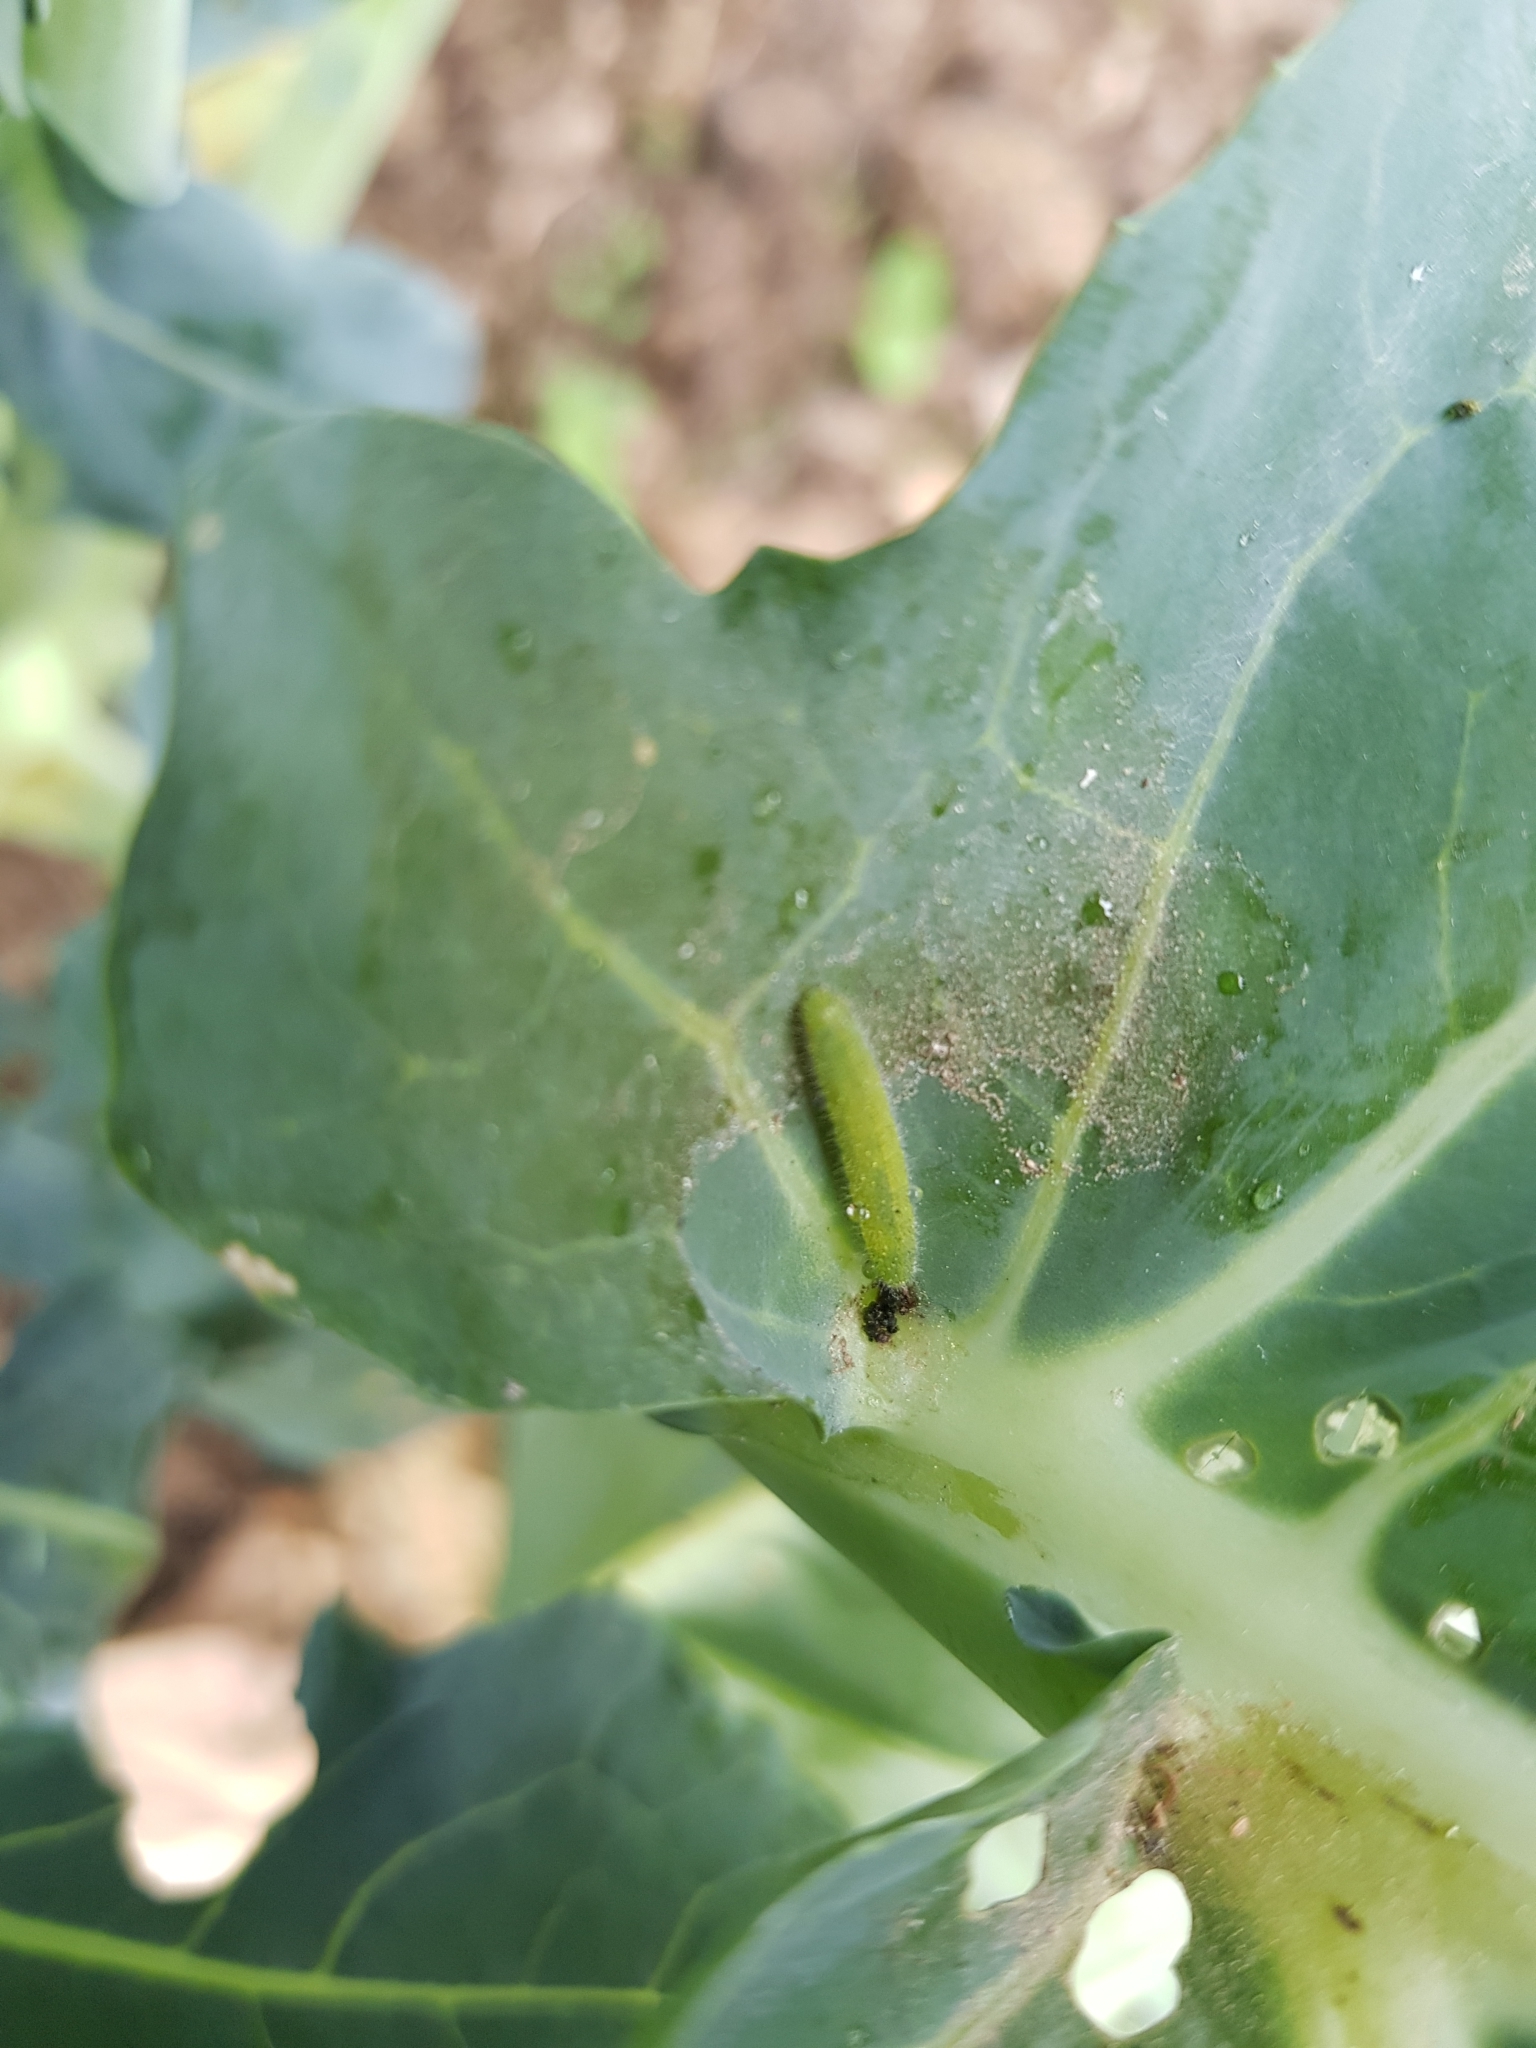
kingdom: Animalia
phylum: Arthropoda
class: Insecta
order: Lepidoptera
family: Pieridae
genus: Pieris
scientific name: Pieris rapae
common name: Small white
